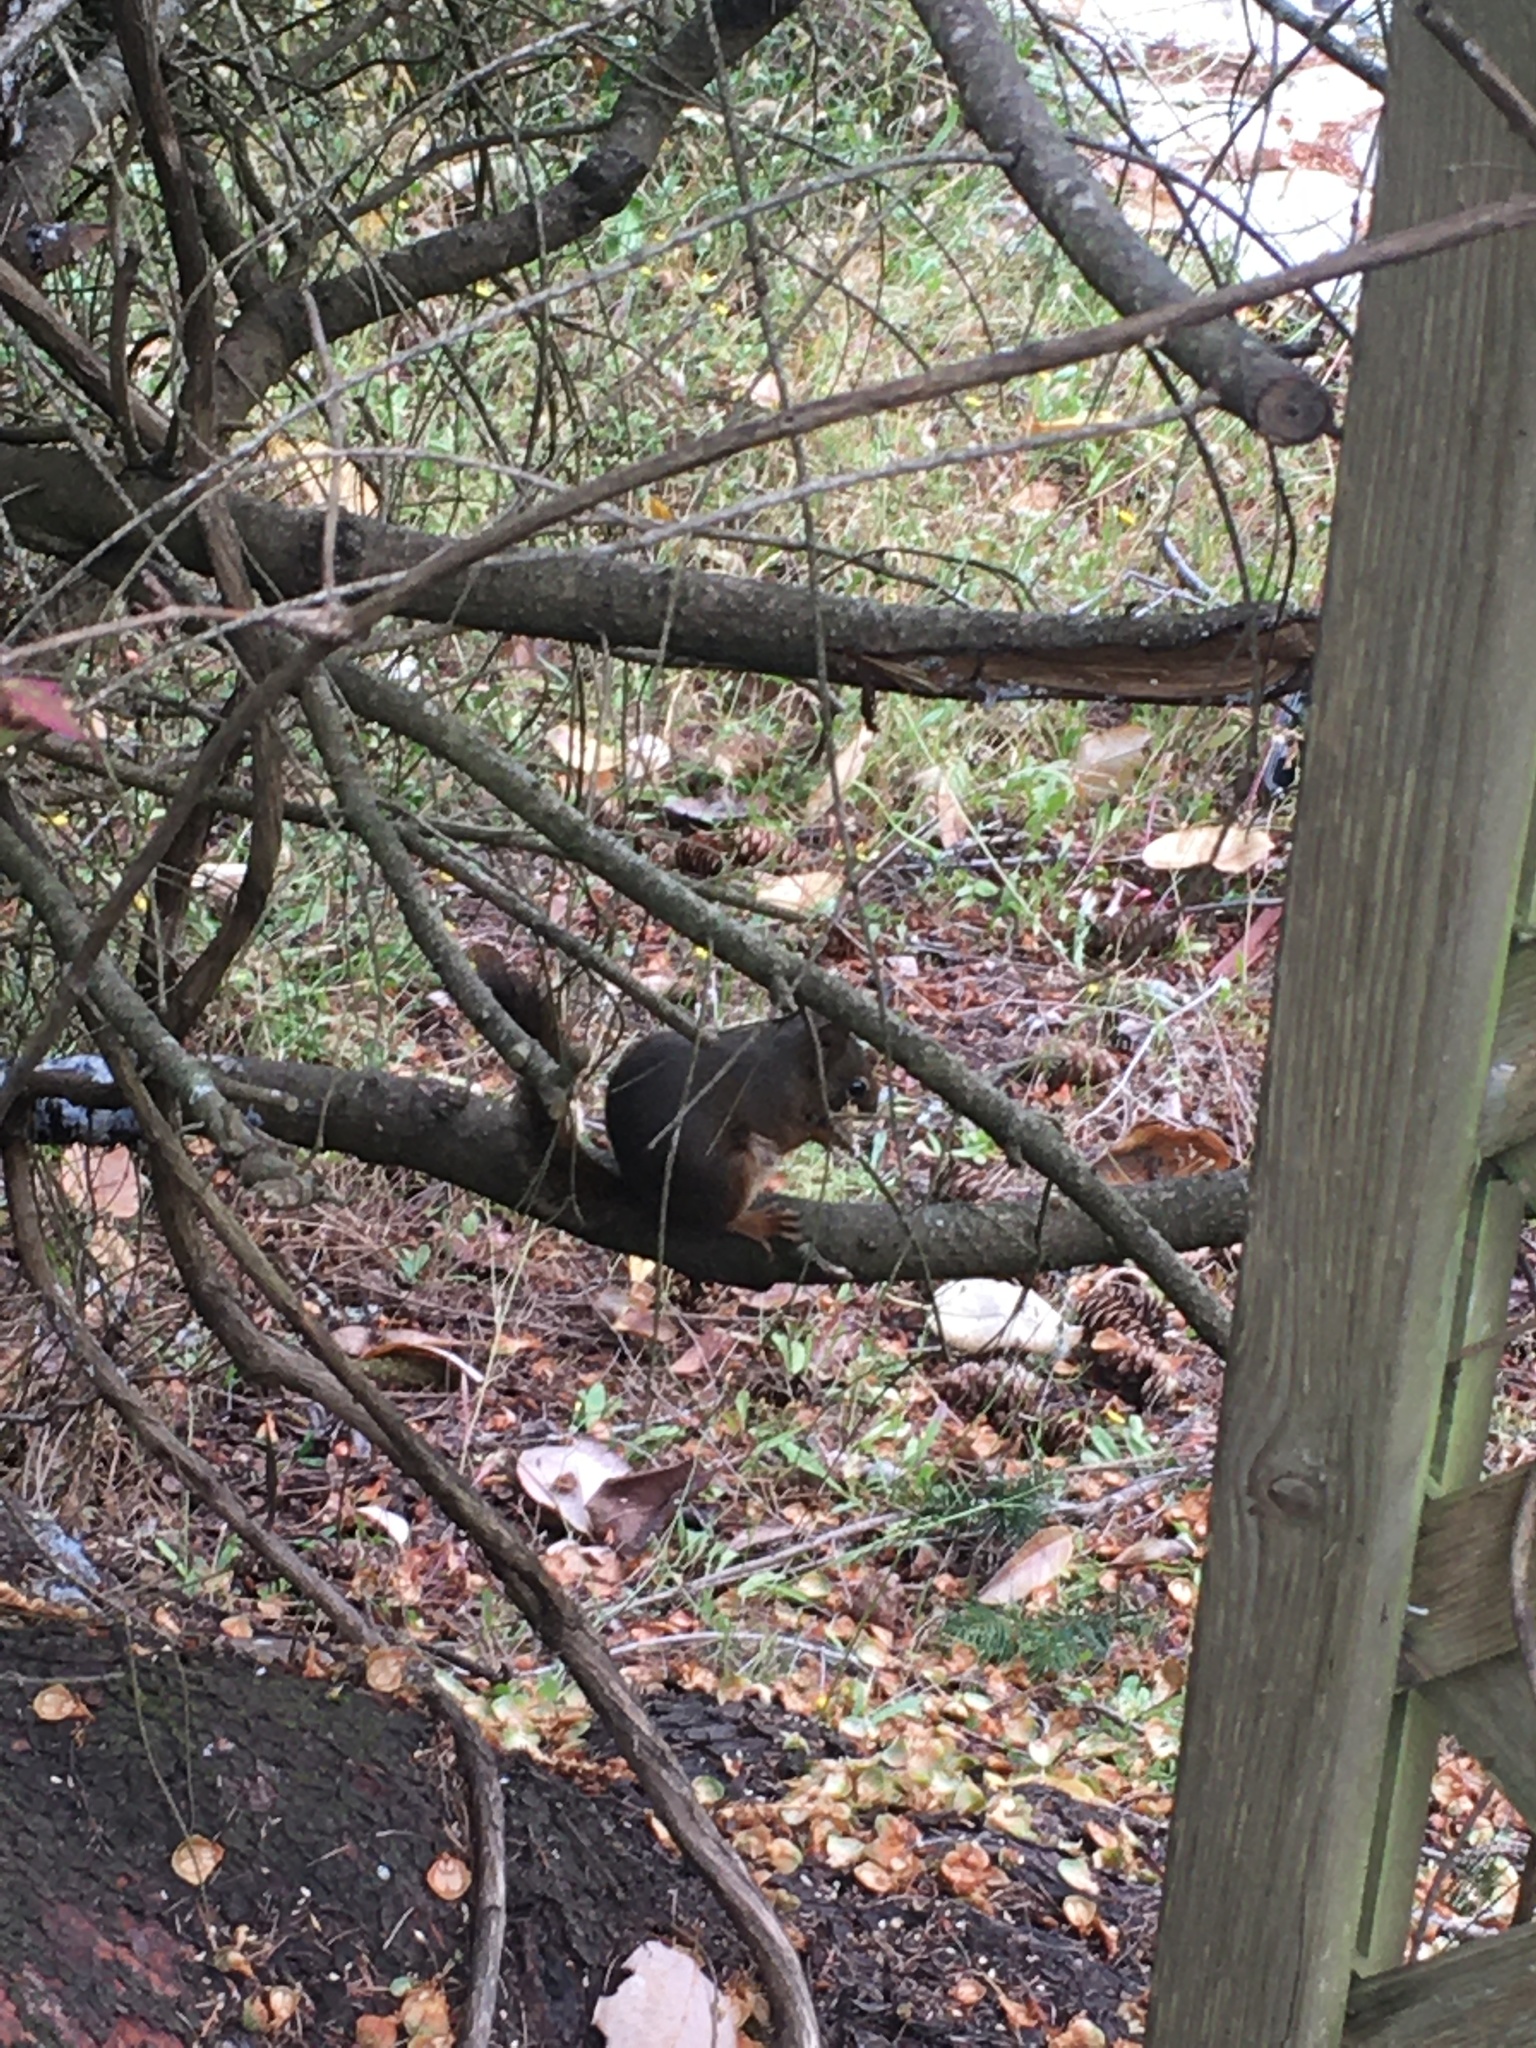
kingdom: Animalia
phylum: Chordata
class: Mammalia
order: Rodentia
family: Sciuridae
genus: Tamiasciurus
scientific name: Tamiasciurus hudsonicus
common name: Red squirrel
